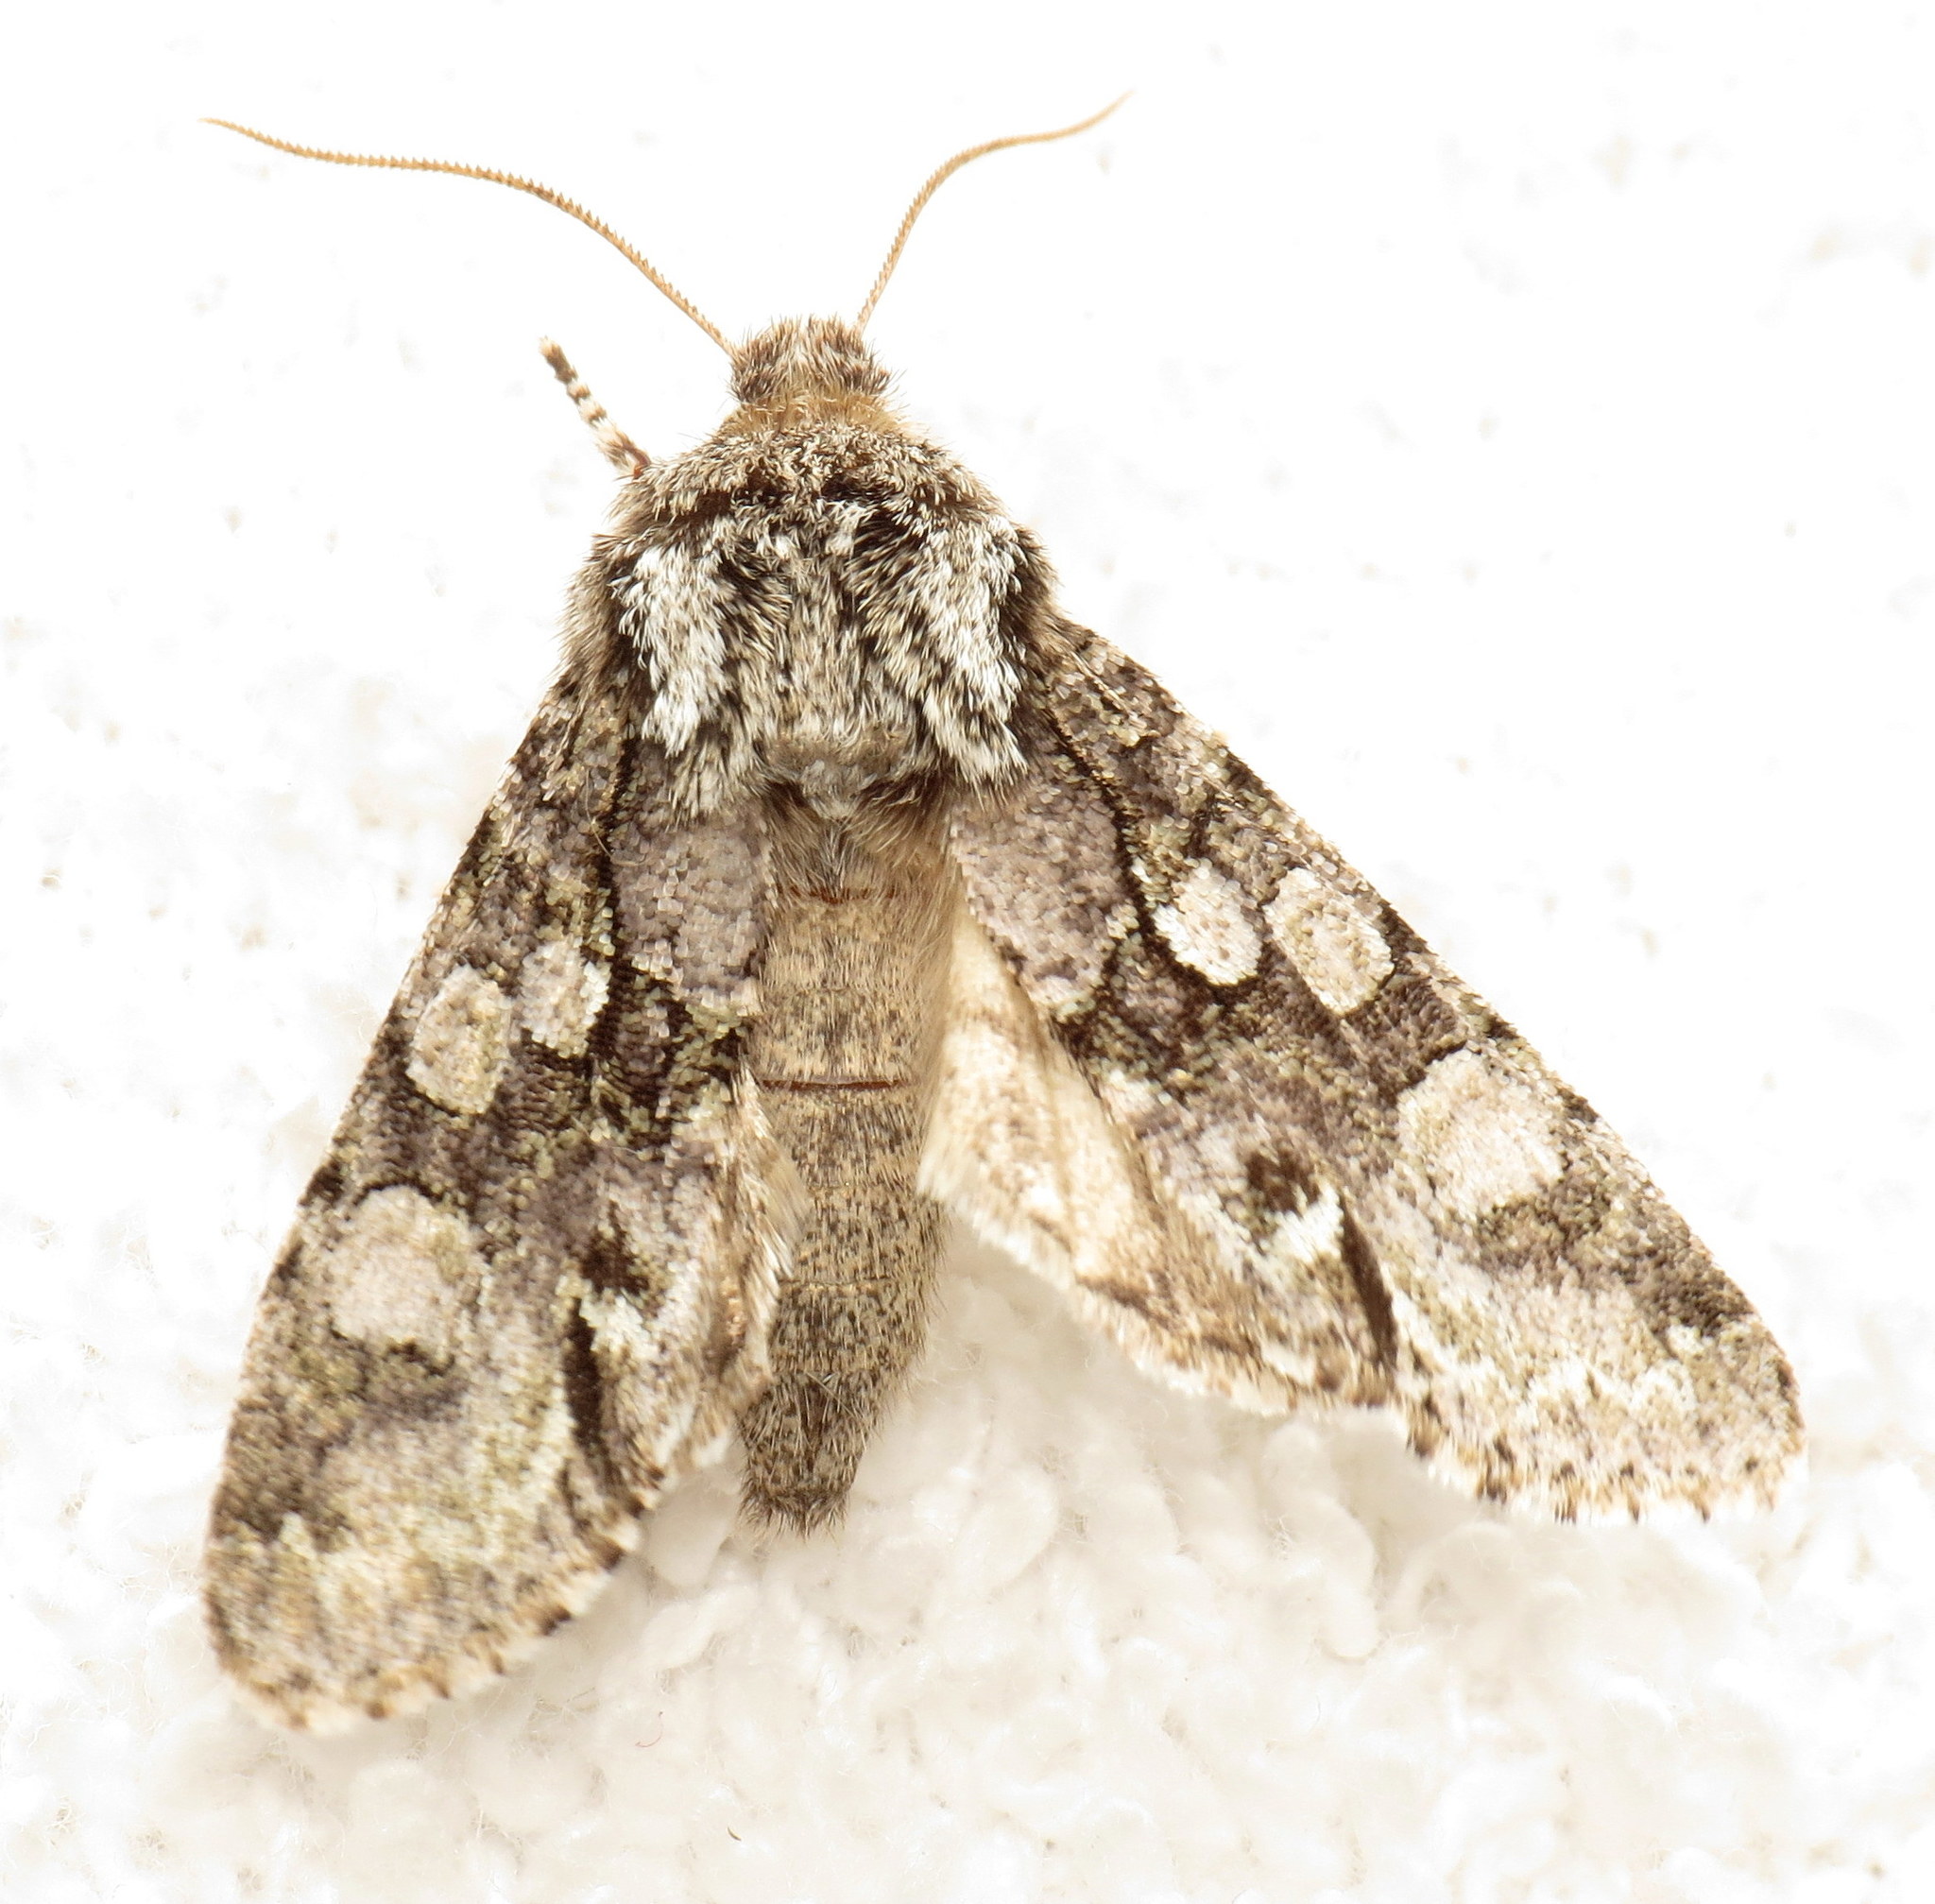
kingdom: Animalia
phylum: Arthropoda
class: Insecta
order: Lepidoptera
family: Noctuidae
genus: Psaphida
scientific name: Psaphida resumens
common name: Figure-eight sallow
